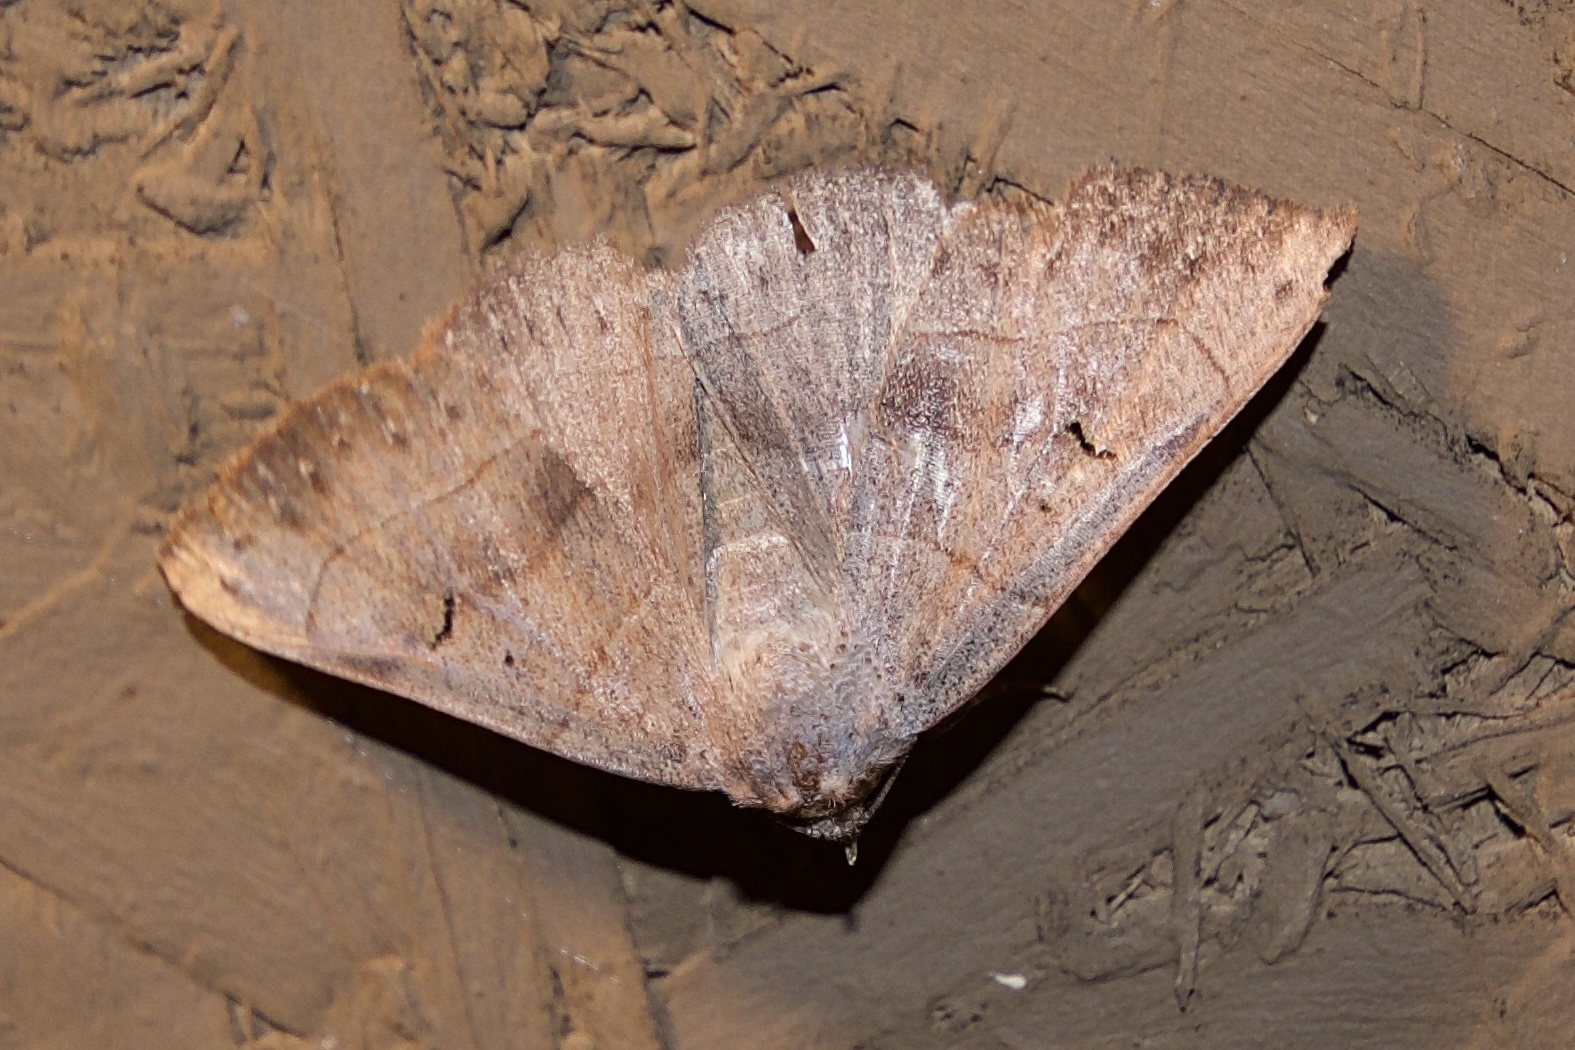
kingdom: Animalia
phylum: Arthropoda
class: Insecta
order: Lepidoptera
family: Erebidae
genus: Panopoda
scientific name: Panopoda carneicosta
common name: Brown panopoda moth
